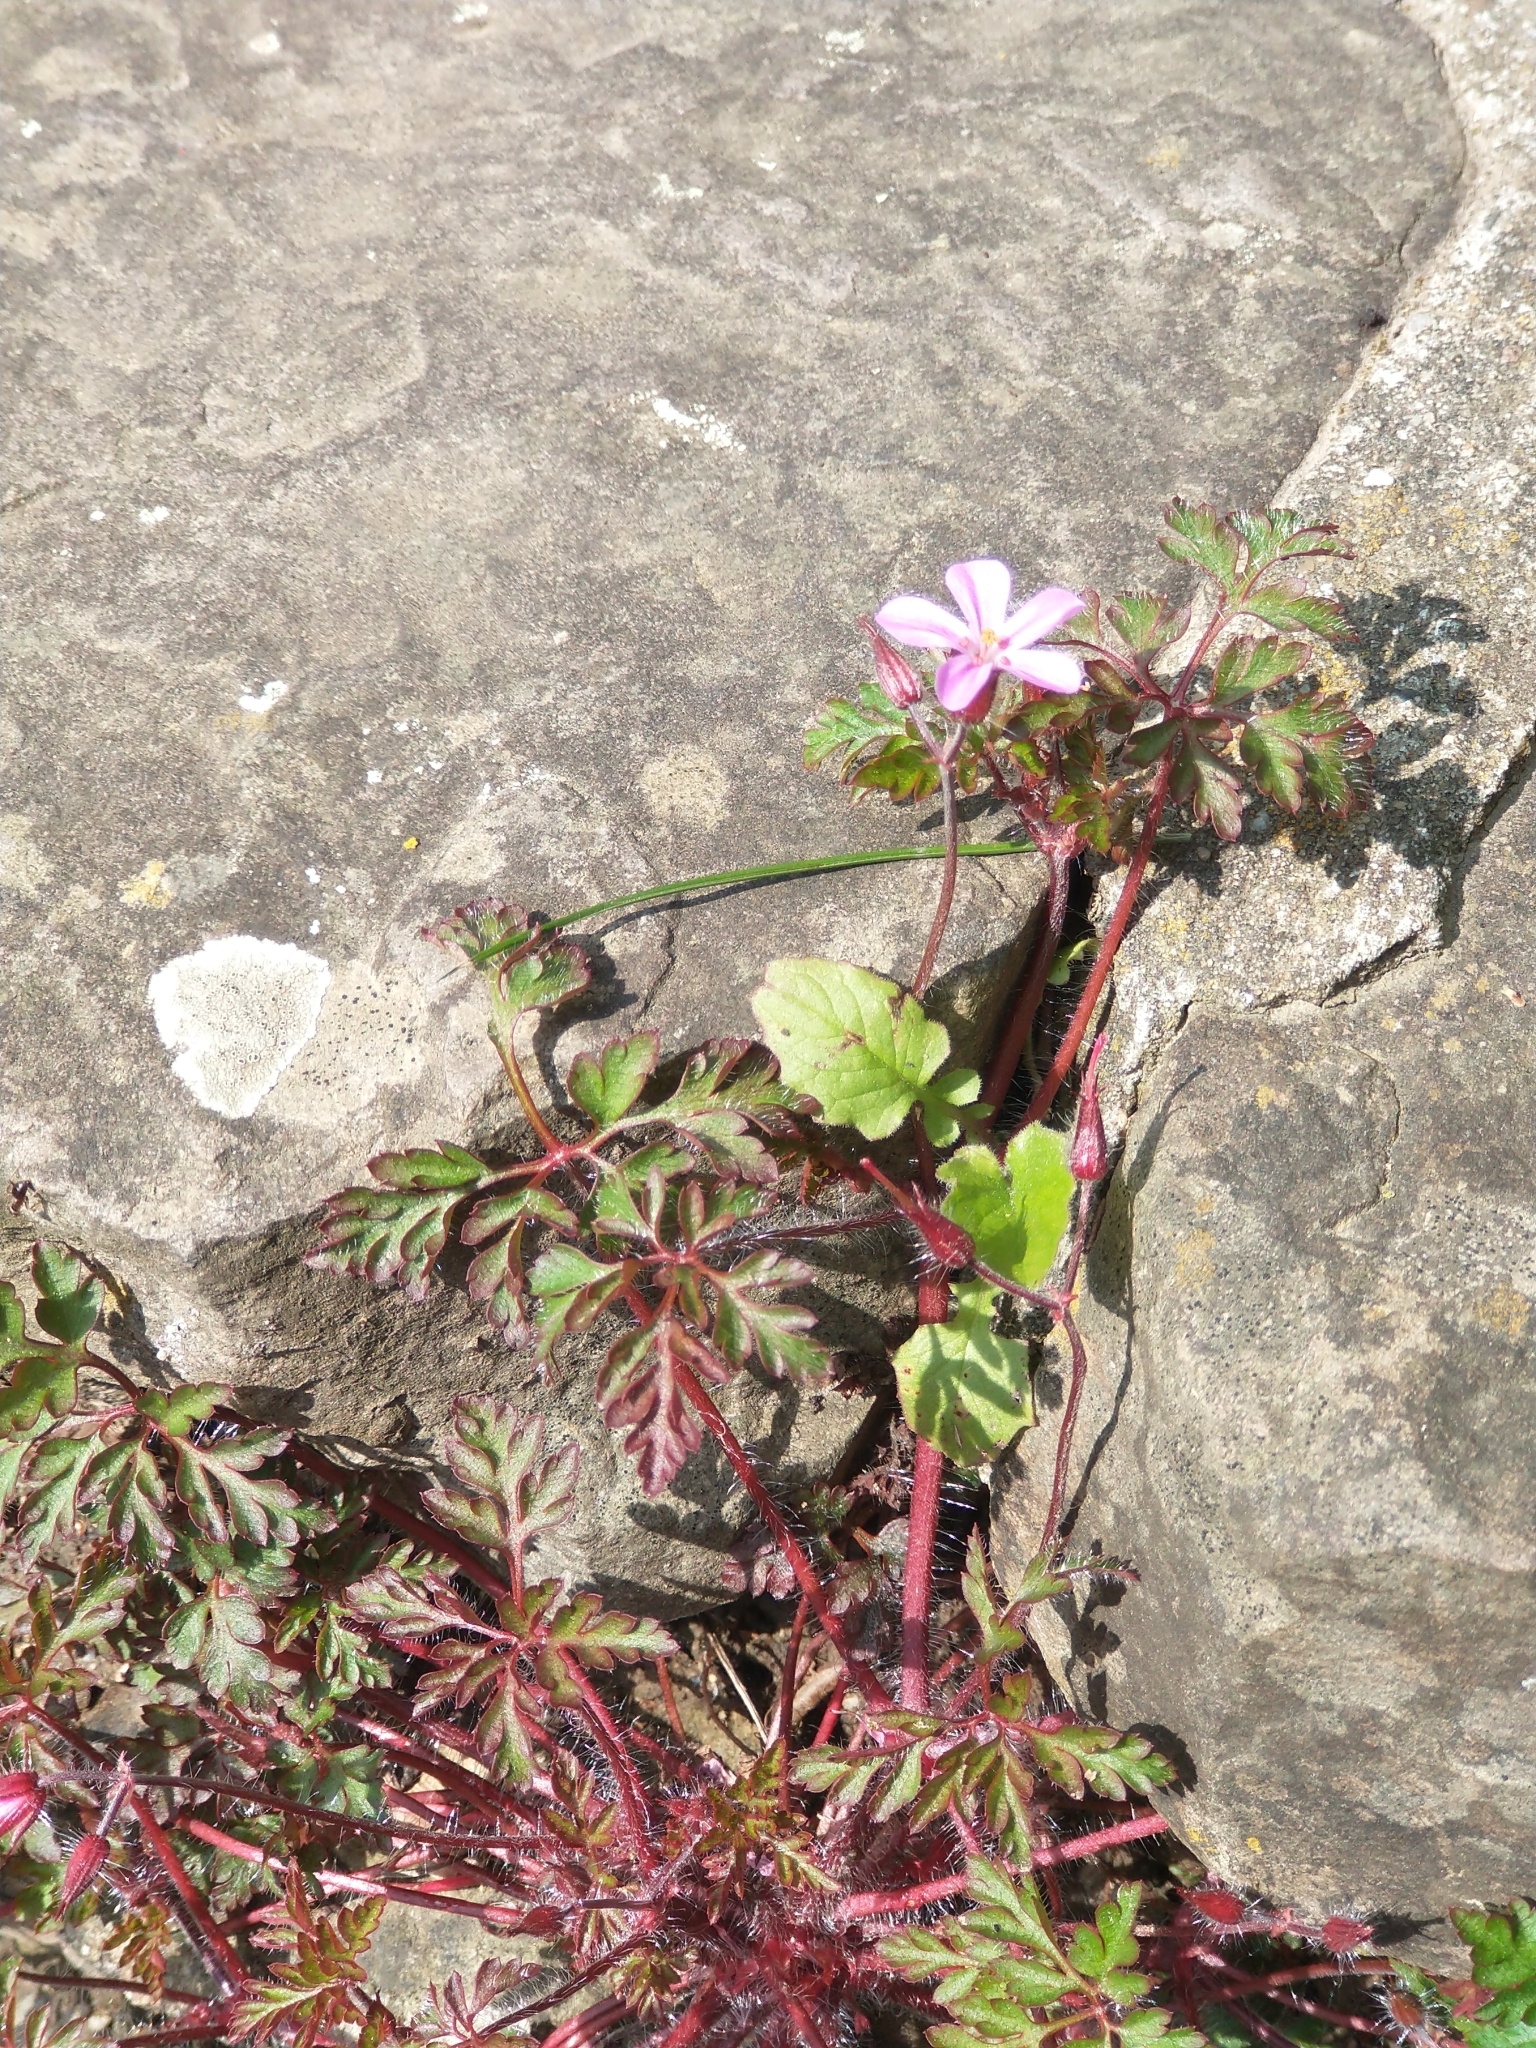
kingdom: Plantae
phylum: Tracheophyta
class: Magnoliopsida
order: Geraniales
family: Geraniaceae
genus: Geranium
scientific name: Geranium robertianum
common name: Herb-robert
